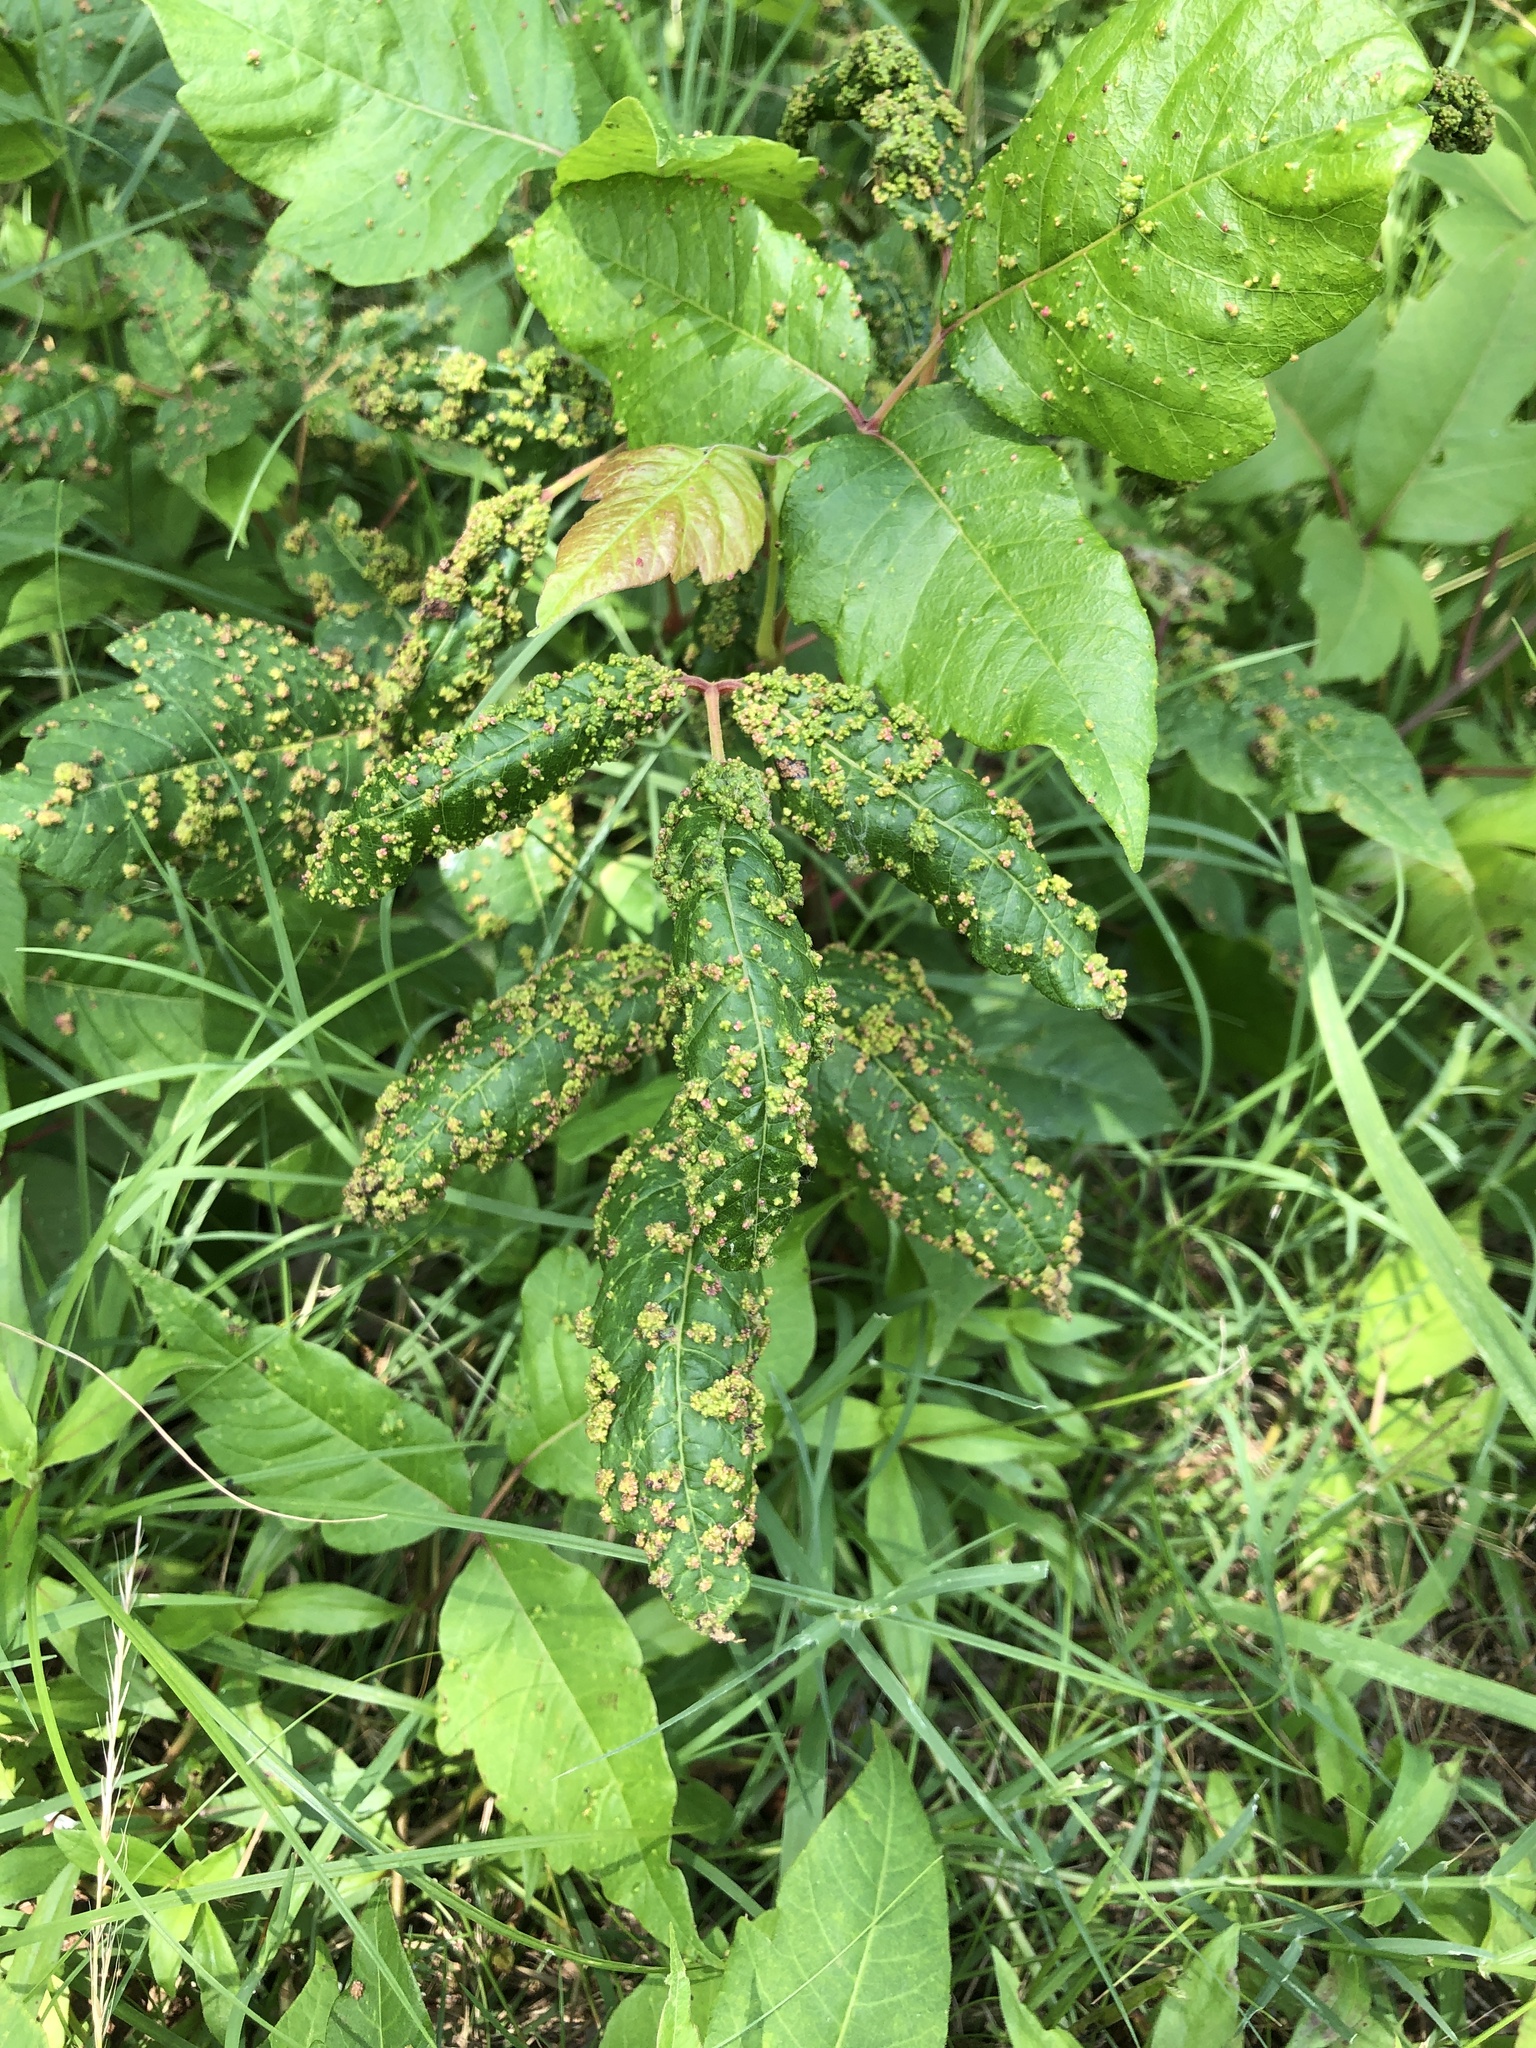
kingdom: Animalia
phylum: Arthropoda
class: Arachnida
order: Trombidiformes
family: Eriophyidae
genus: Aculops
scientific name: Aculops
